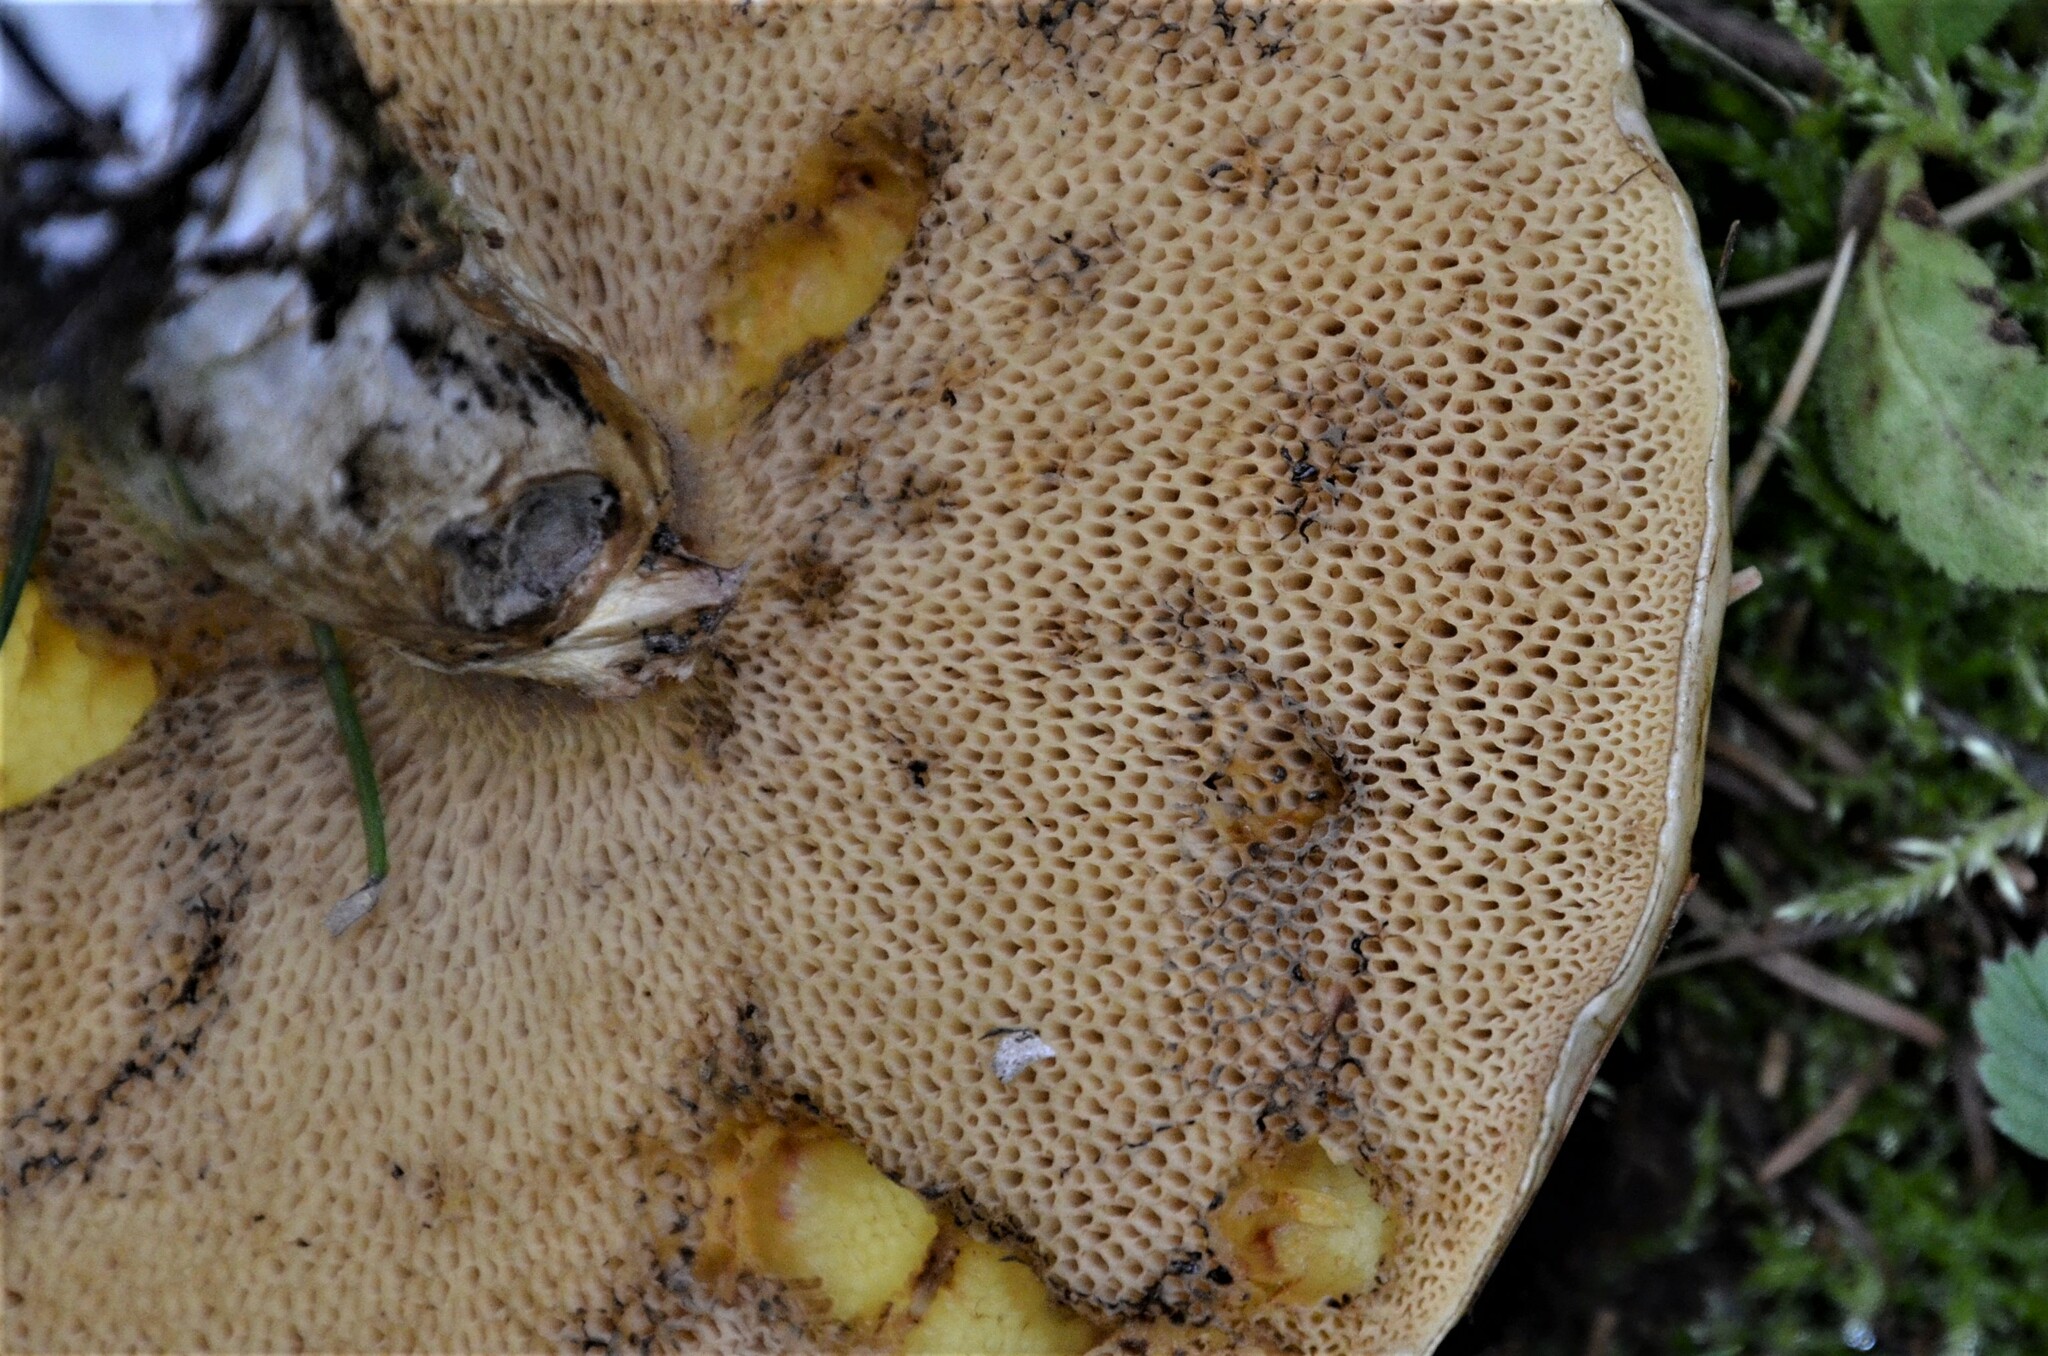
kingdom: Fungi
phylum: Basidiomycota
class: Agaricomycetes
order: Boletales
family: Suillaceae
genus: Suillus
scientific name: Suillus grevillei
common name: Larch bolete
